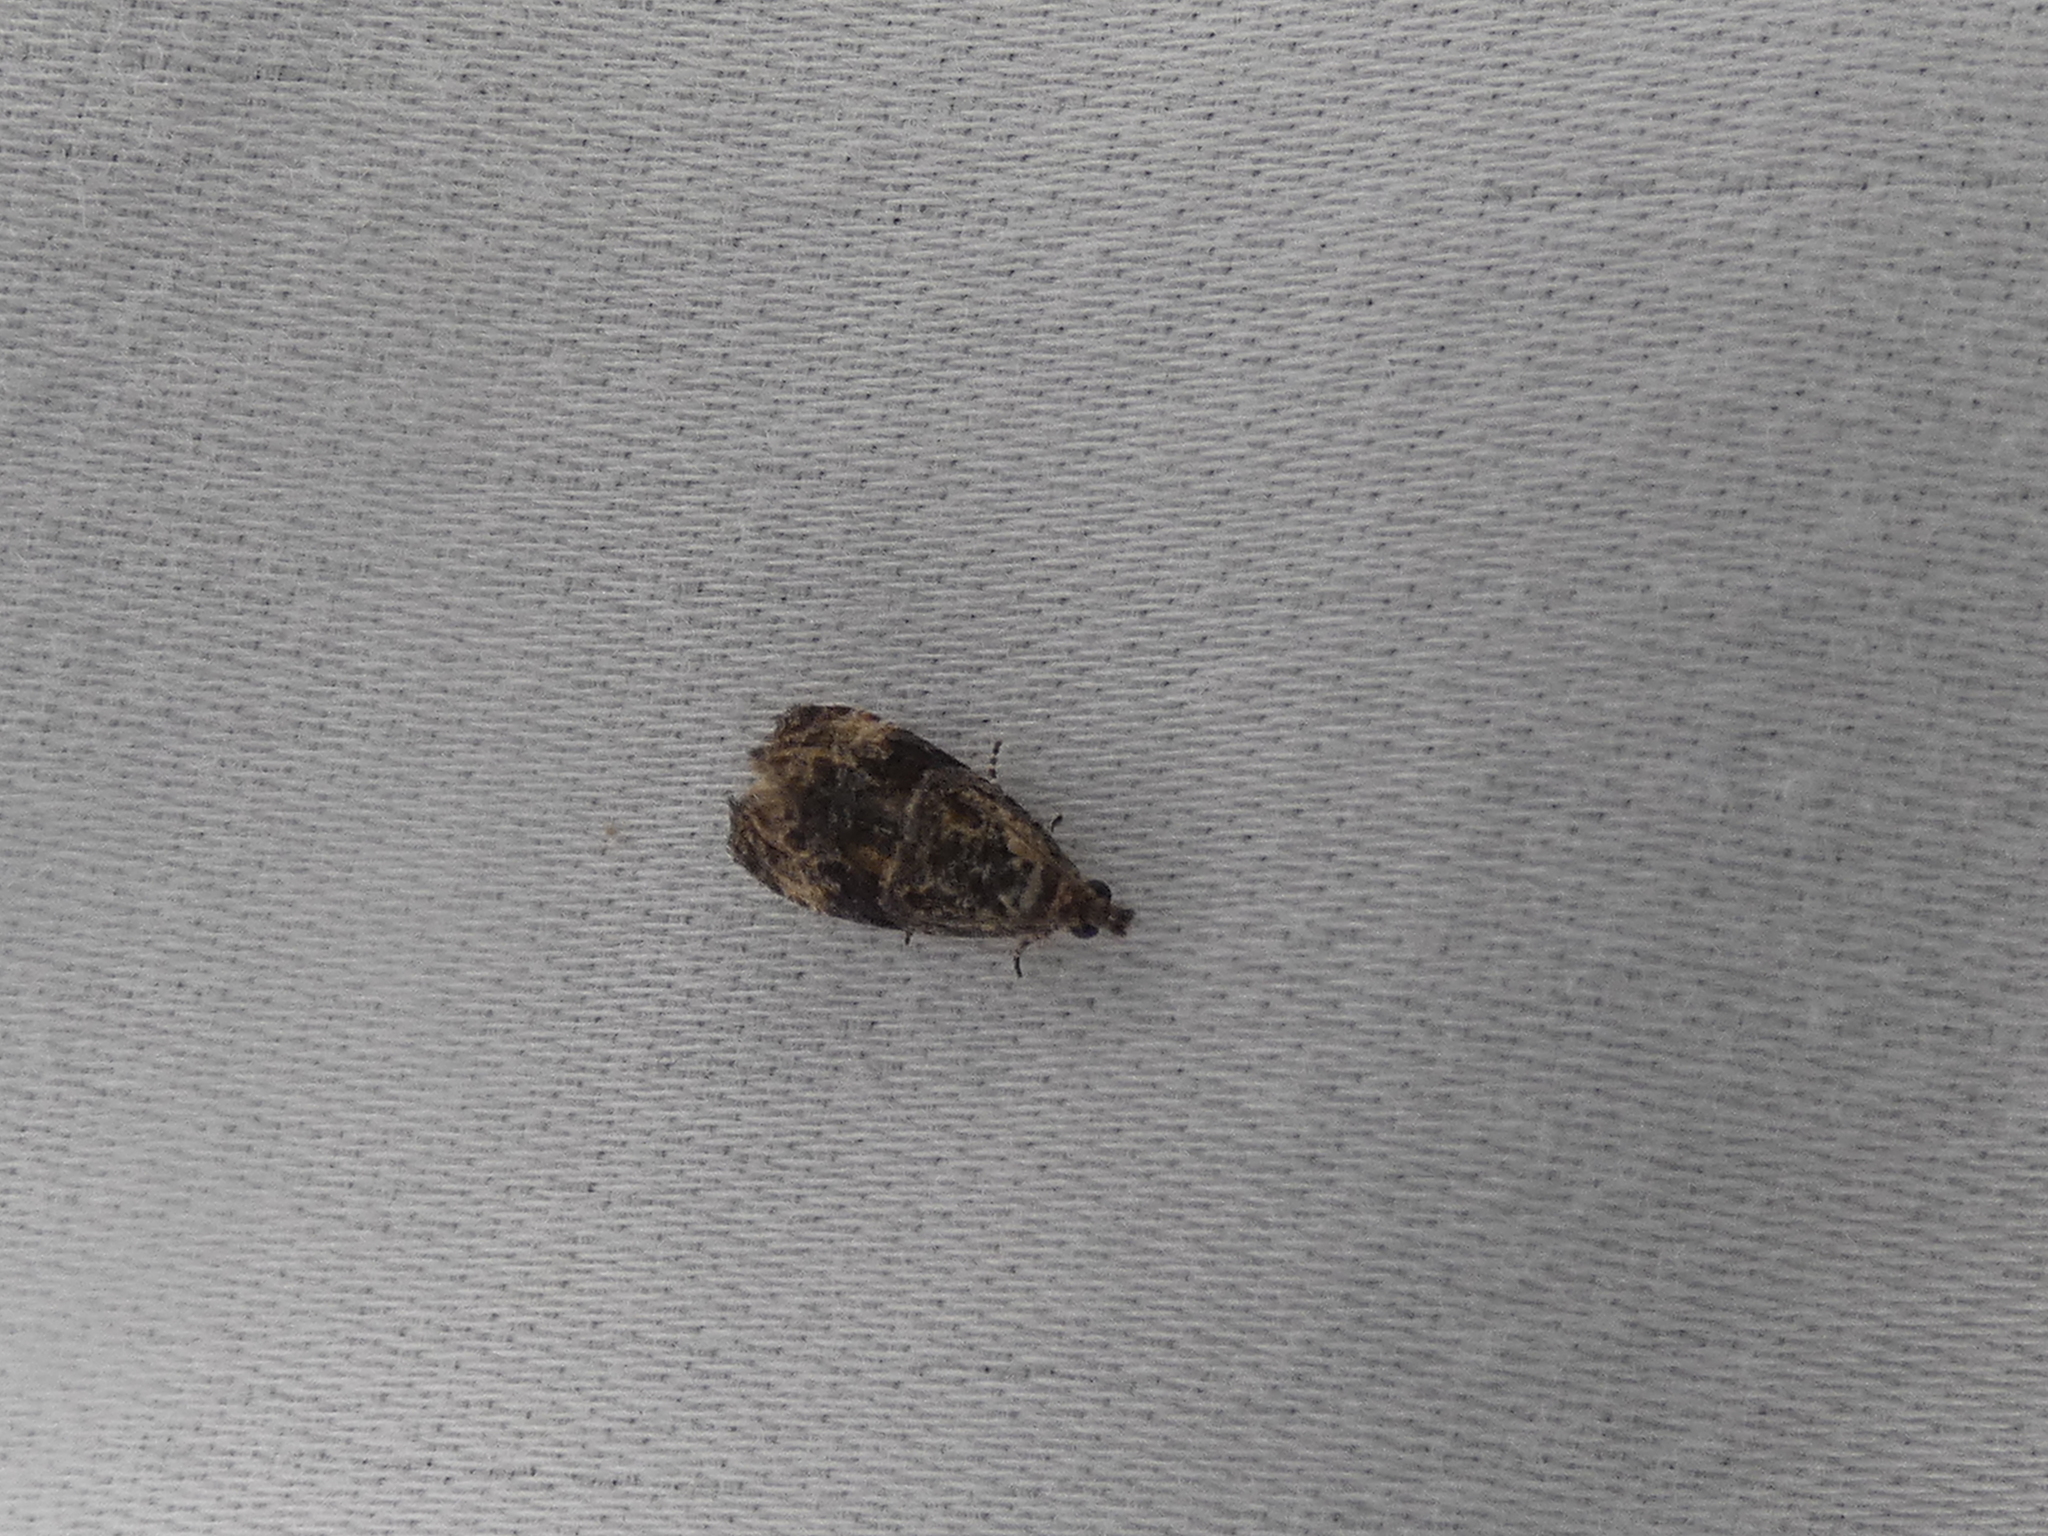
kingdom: Animalia
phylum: Arthropoda
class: Insecta
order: Lepidoptera
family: Tortricidae
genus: Endothenia
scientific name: Endothenia hebesana
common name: Verbena bud moth
